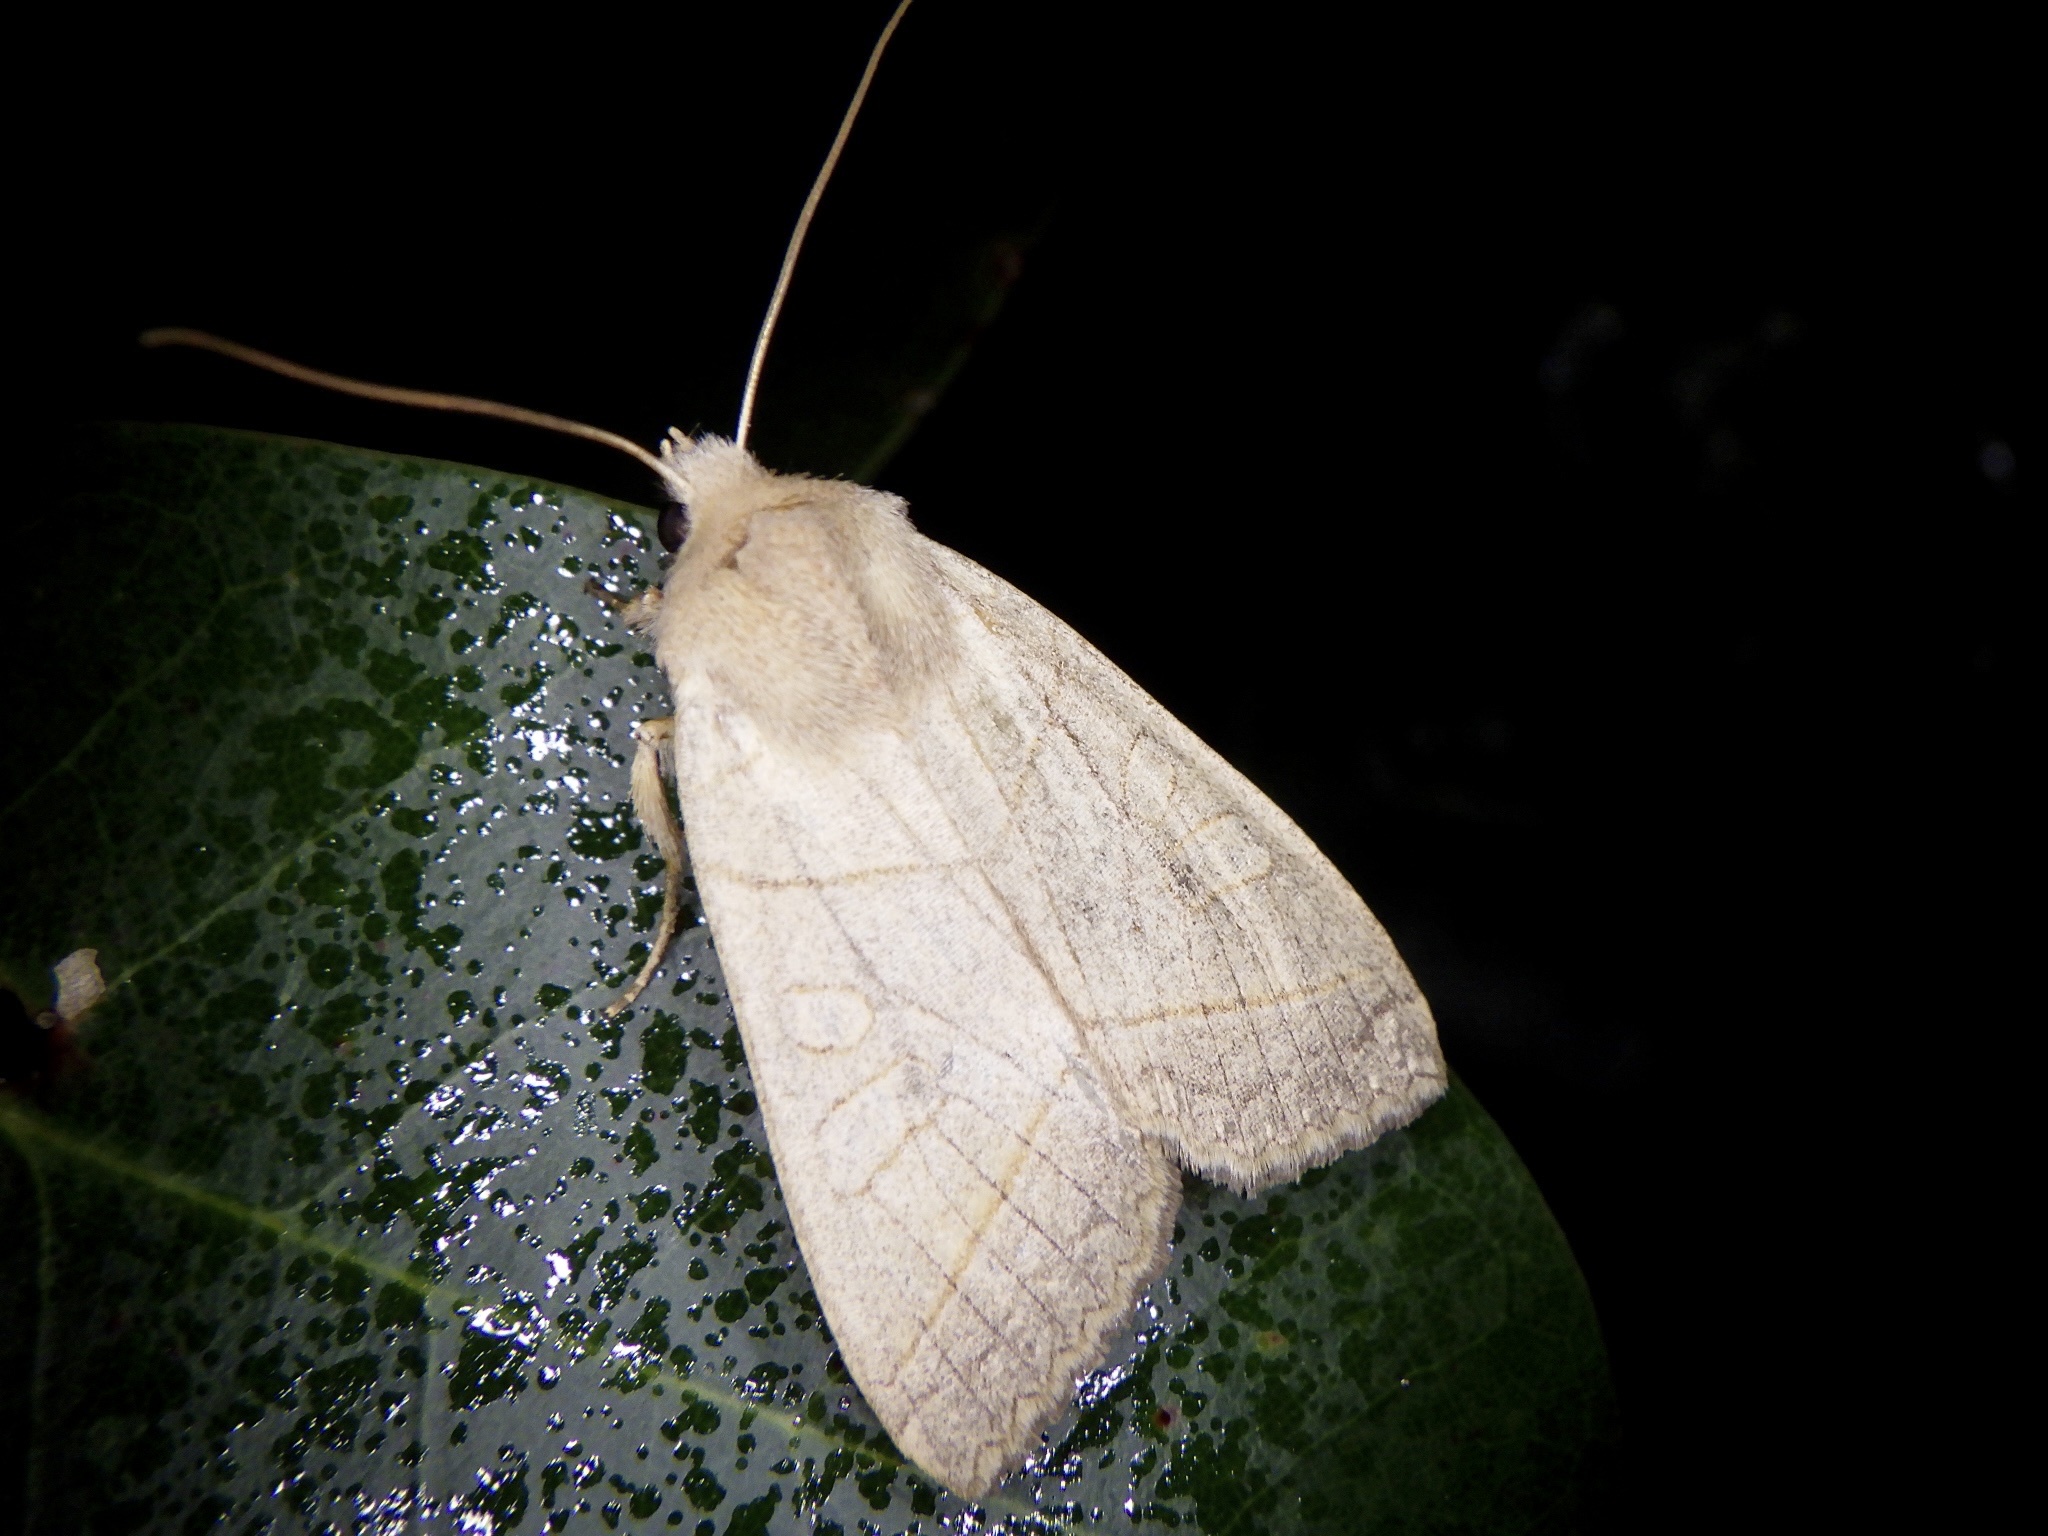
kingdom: Animalia
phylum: Arthropoda
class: Insecta
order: Lepidoptera
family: Noctuidae
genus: Telorta
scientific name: Telorta divergens
